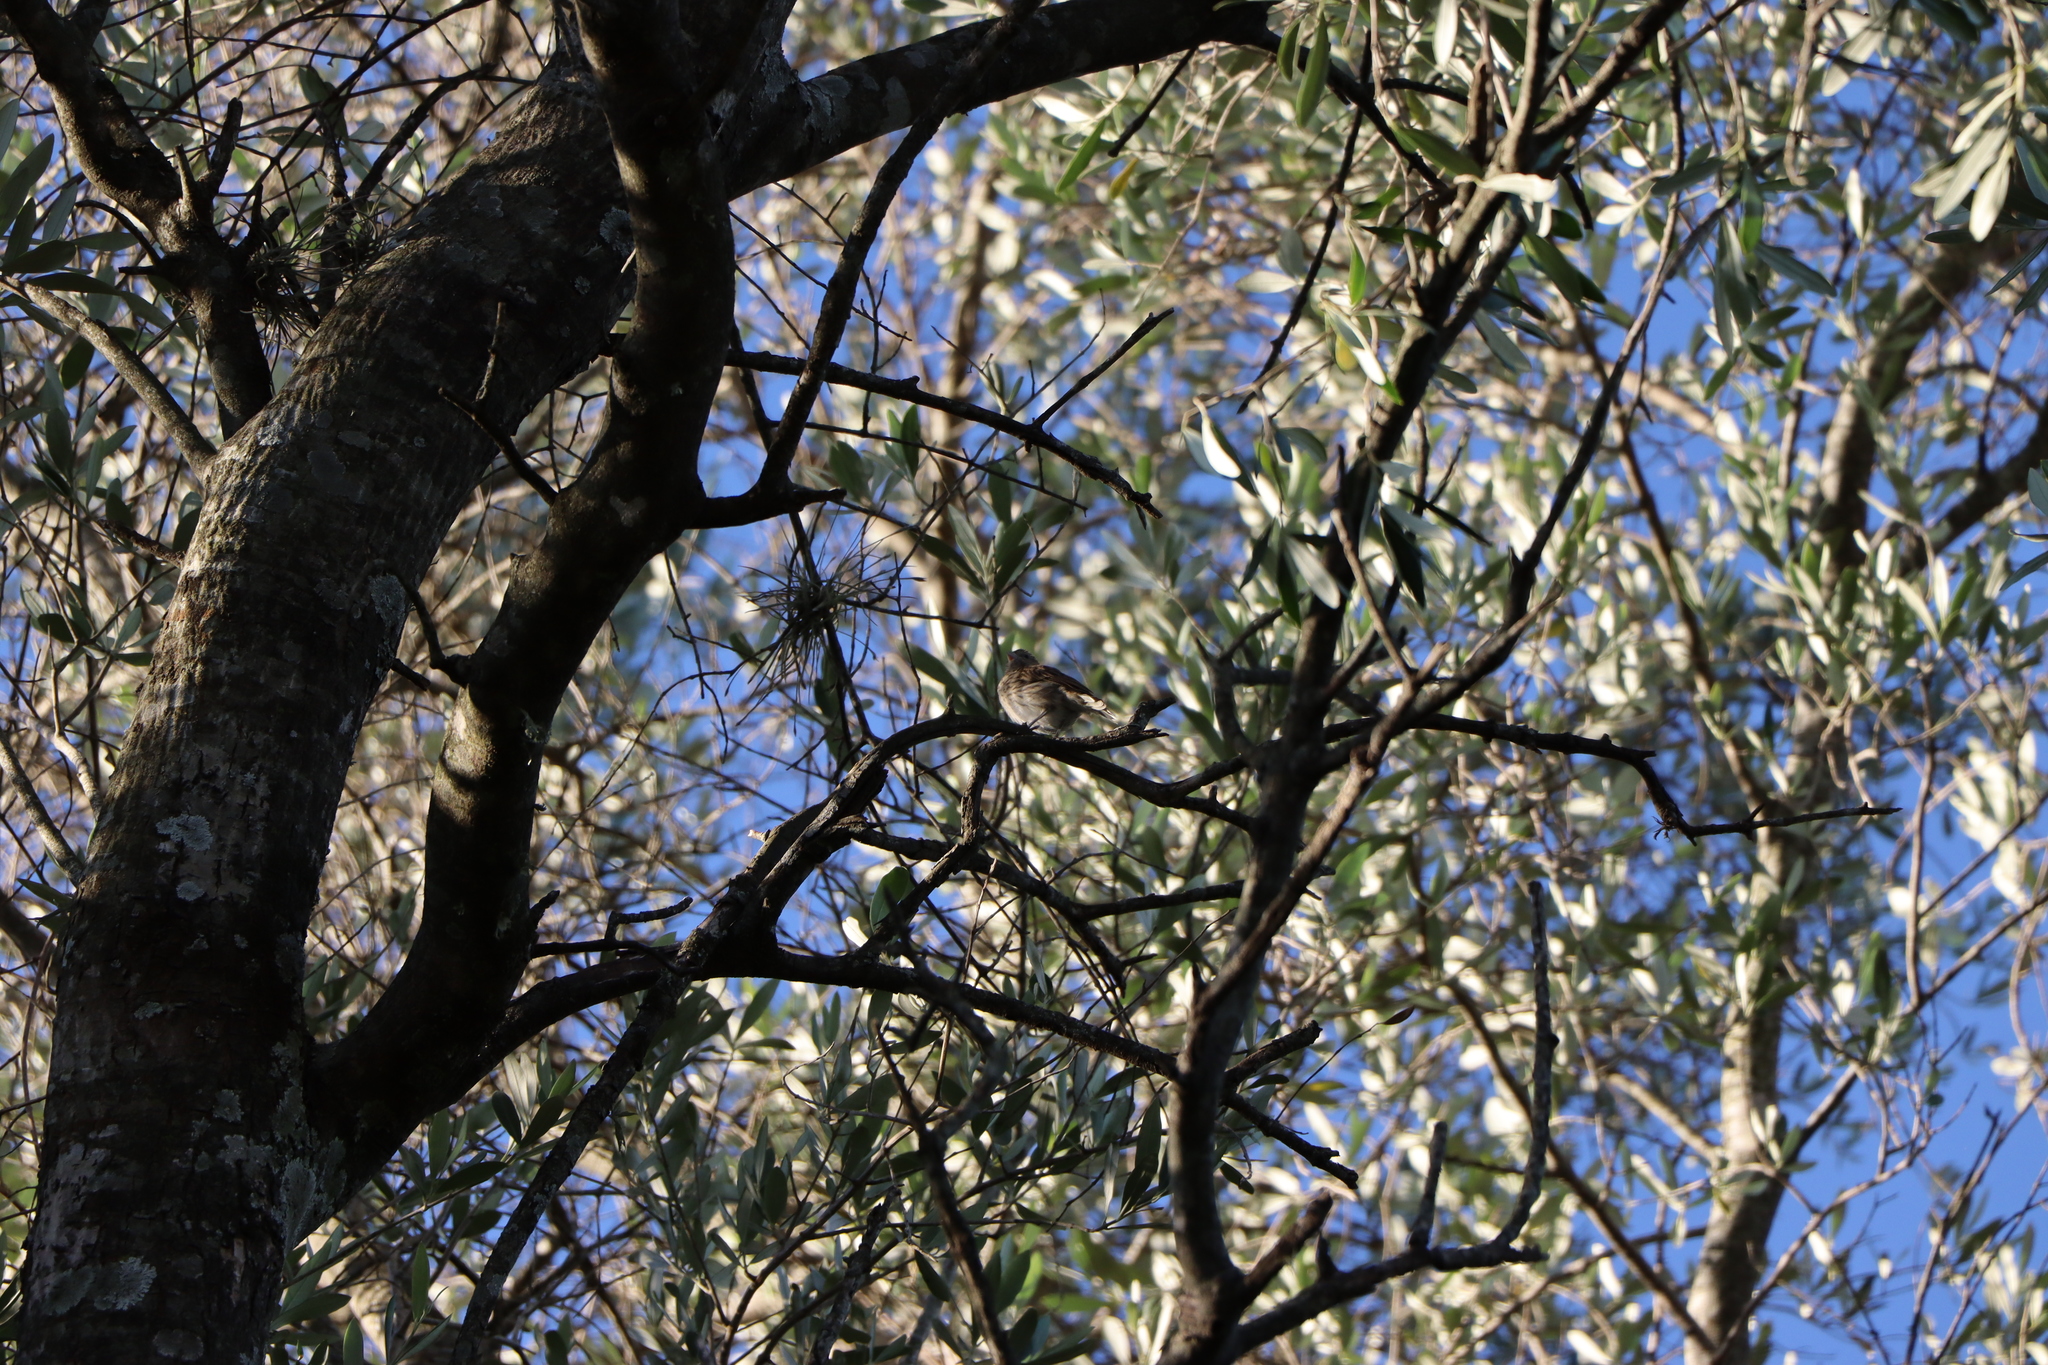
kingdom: Animalia
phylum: Chordata
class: Aves
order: Passeriformes
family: Thraupidae
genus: Sicalis
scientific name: Sicalis flaveola
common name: Saffron finch
